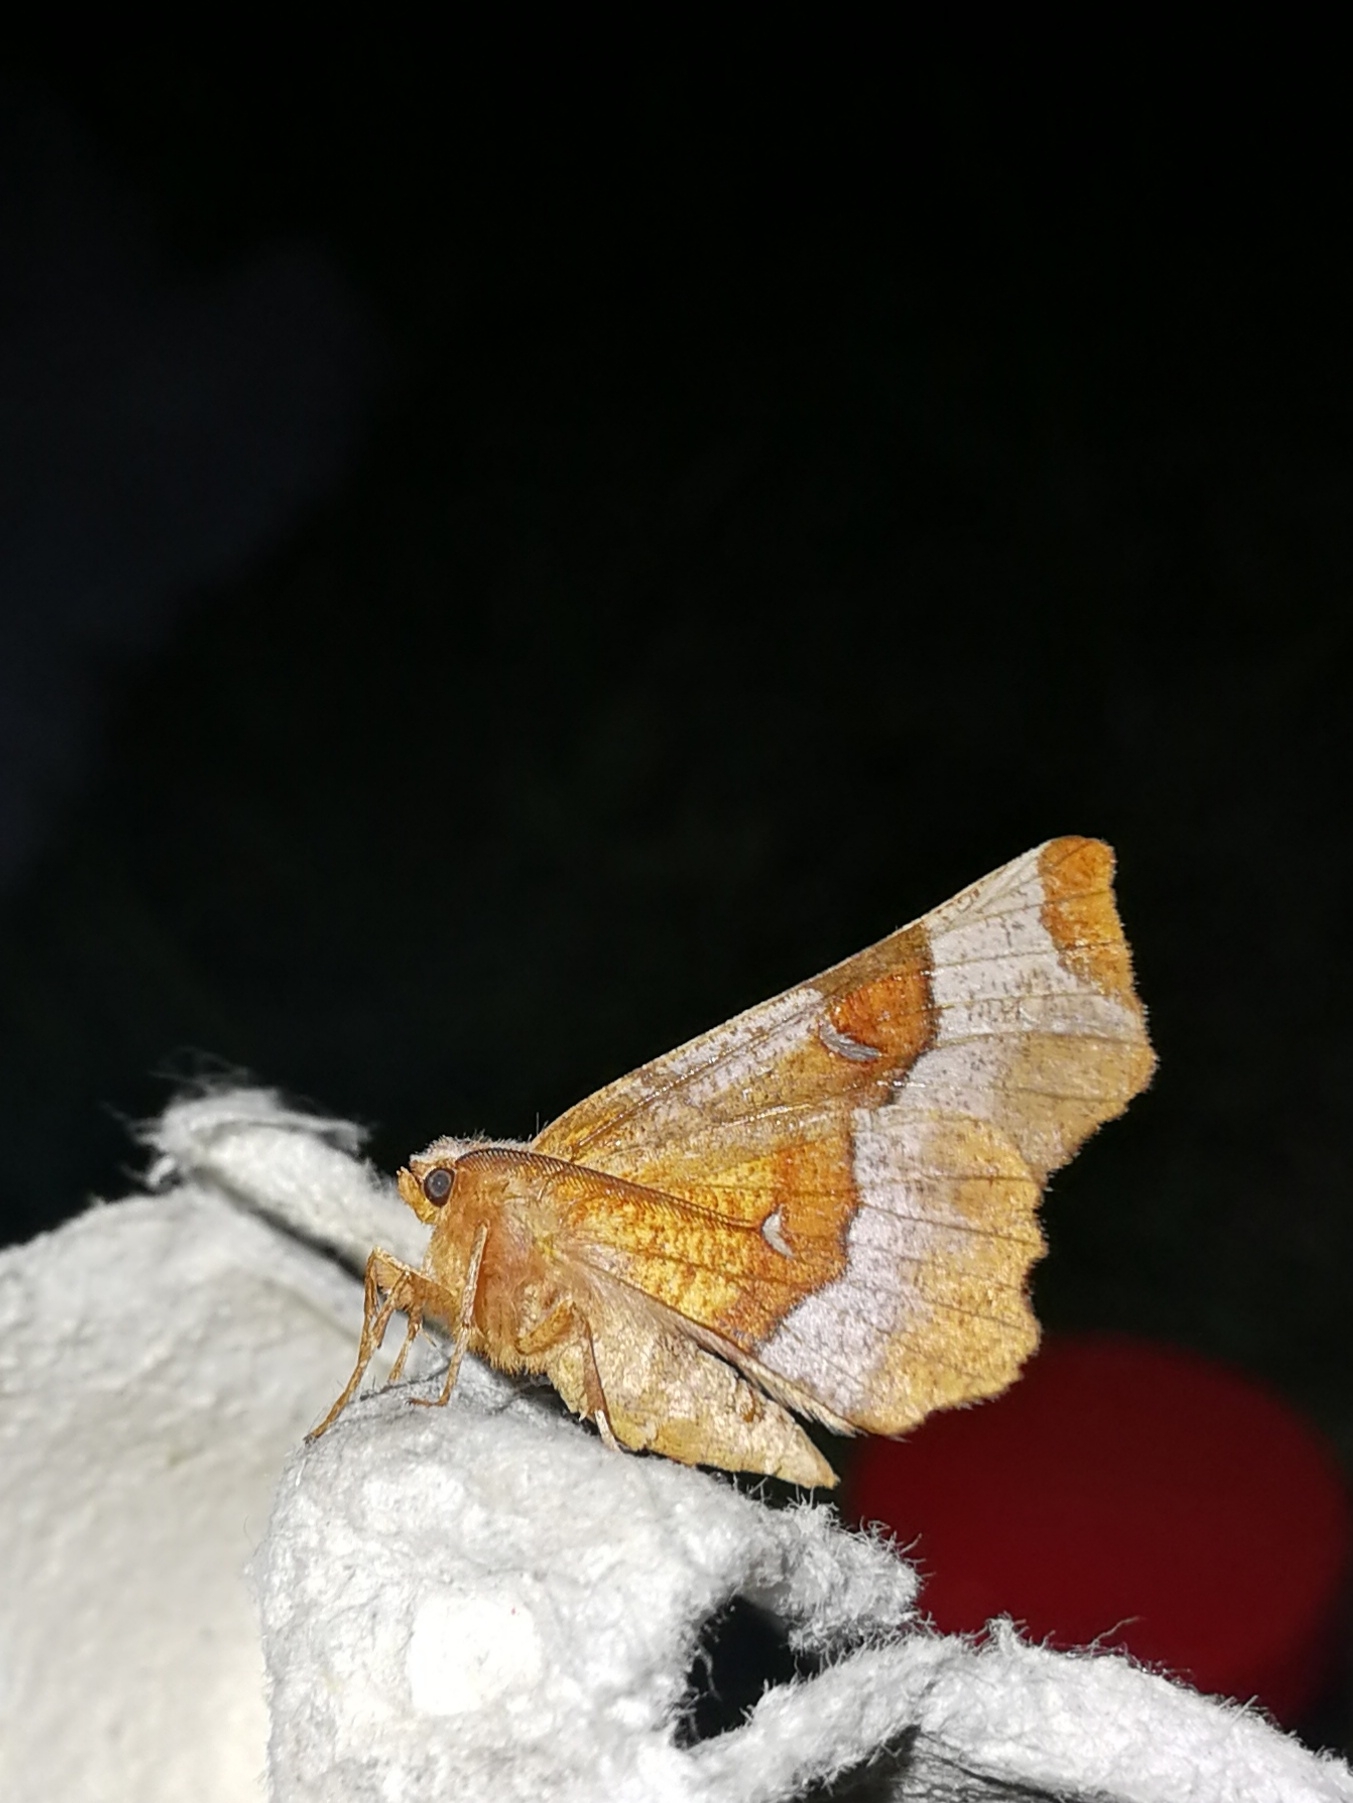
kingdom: Animalia
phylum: Arthropoda
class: Insecta
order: Lepidoptera
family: Geometridae
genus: Selenia
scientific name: Selenia dentaria
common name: Early thorn
